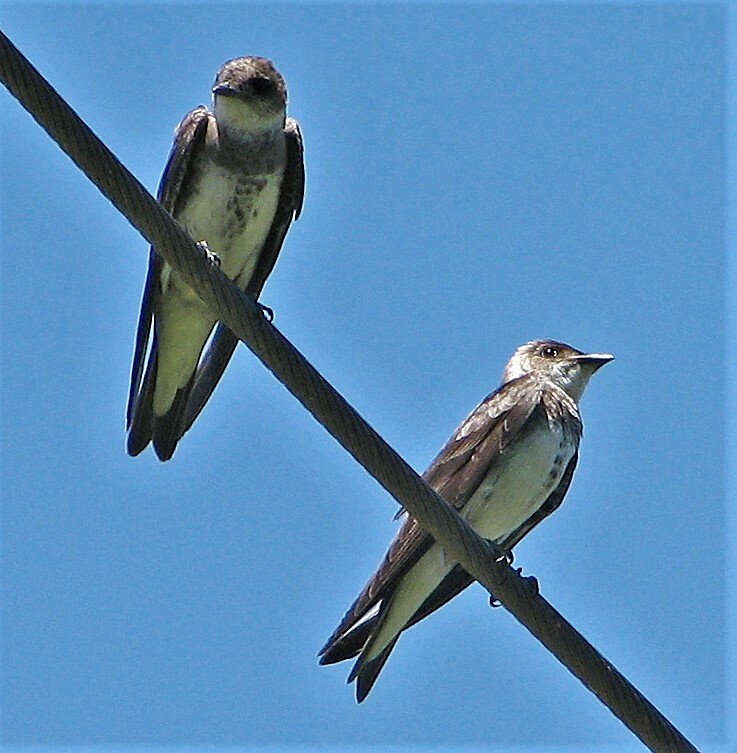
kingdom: Animalia
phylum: Chordata
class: Aves
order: Passeriformes
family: Hirundinidae
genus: Progne
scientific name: Progne tapera
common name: Brown-chested martin
